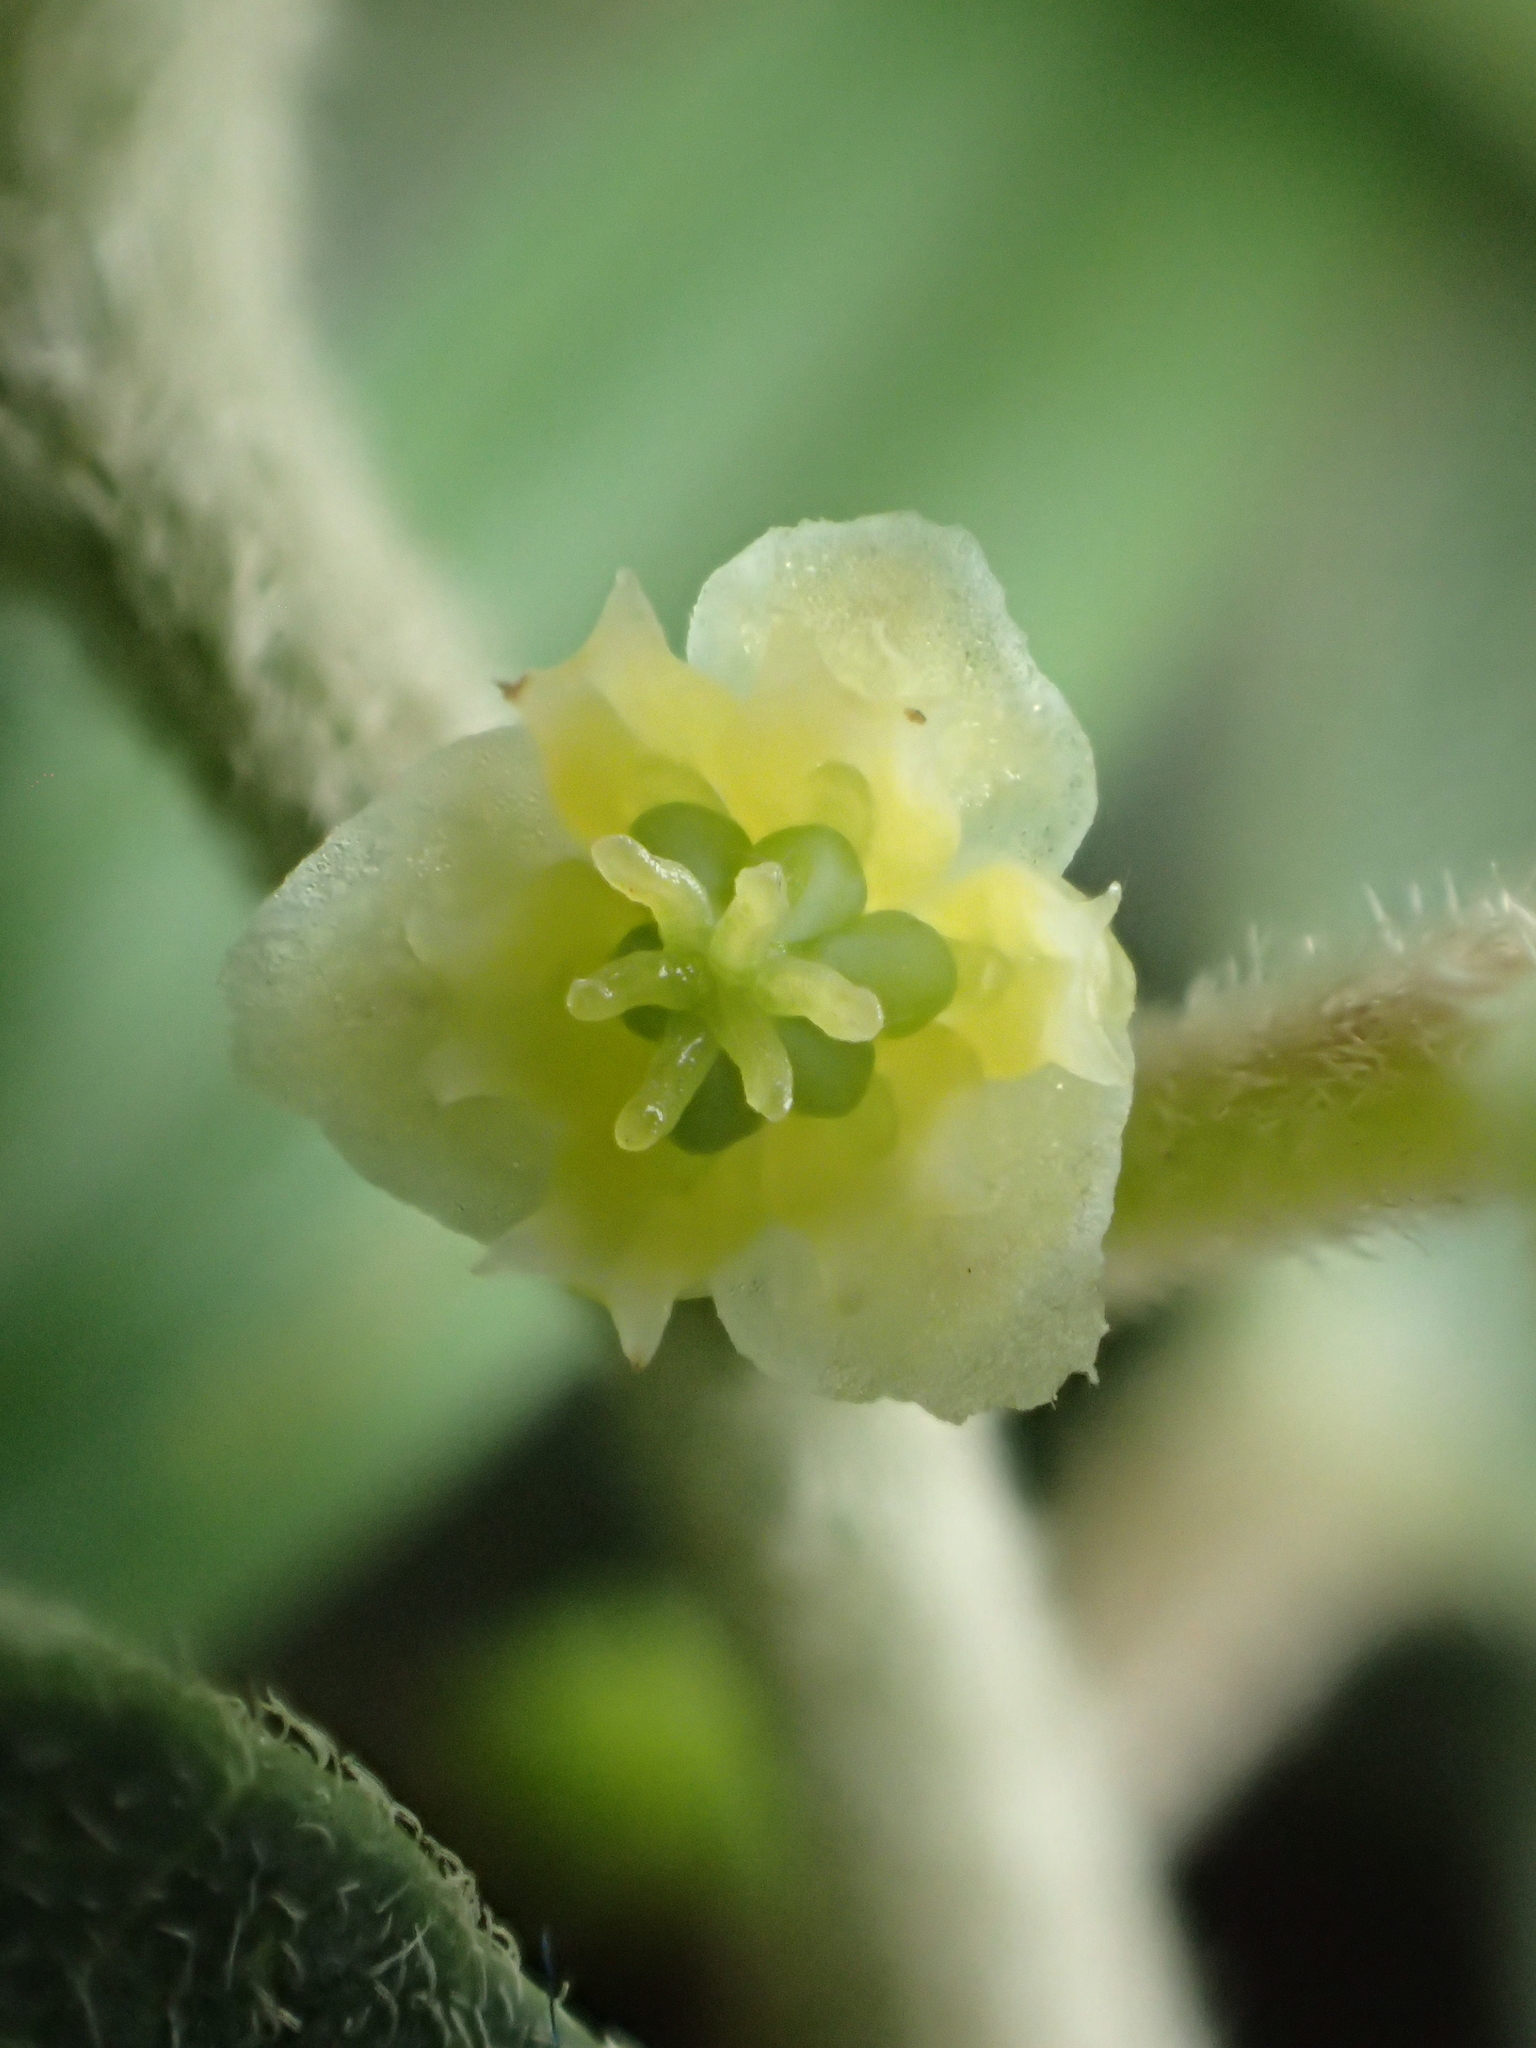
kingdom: Plantae
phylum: Tracheophyta
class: Magnoliopsida
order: Ranunculales
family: Menispermaceae
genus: Cocculus
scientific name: Cocculus orbiculatus
